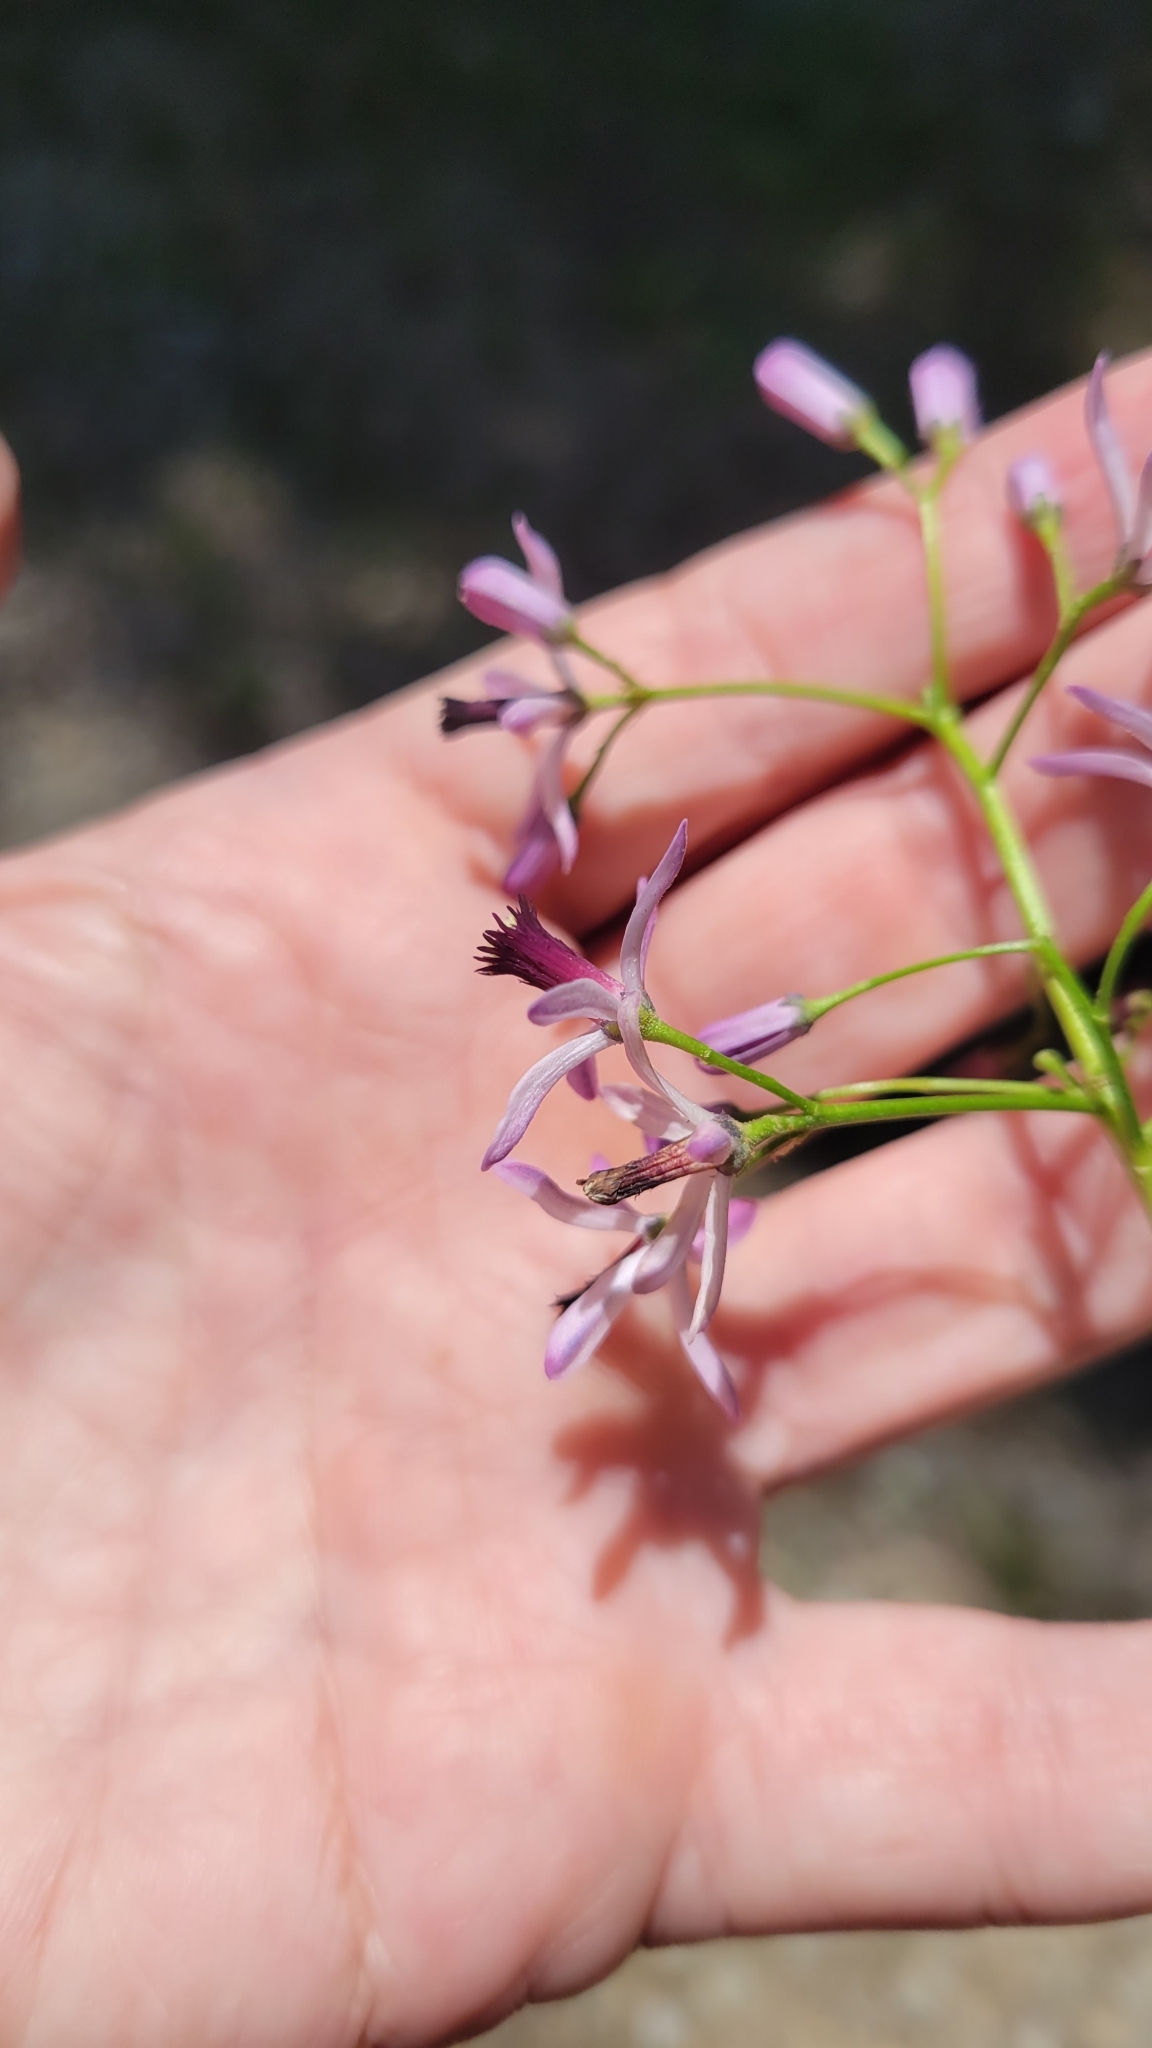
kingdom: Plantae
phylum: Tracheophyta
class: Magnoliopsida
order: Sapindales
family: Meliaceae
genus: Melia
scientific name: Melia azedarach
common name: Chinaberrytree
